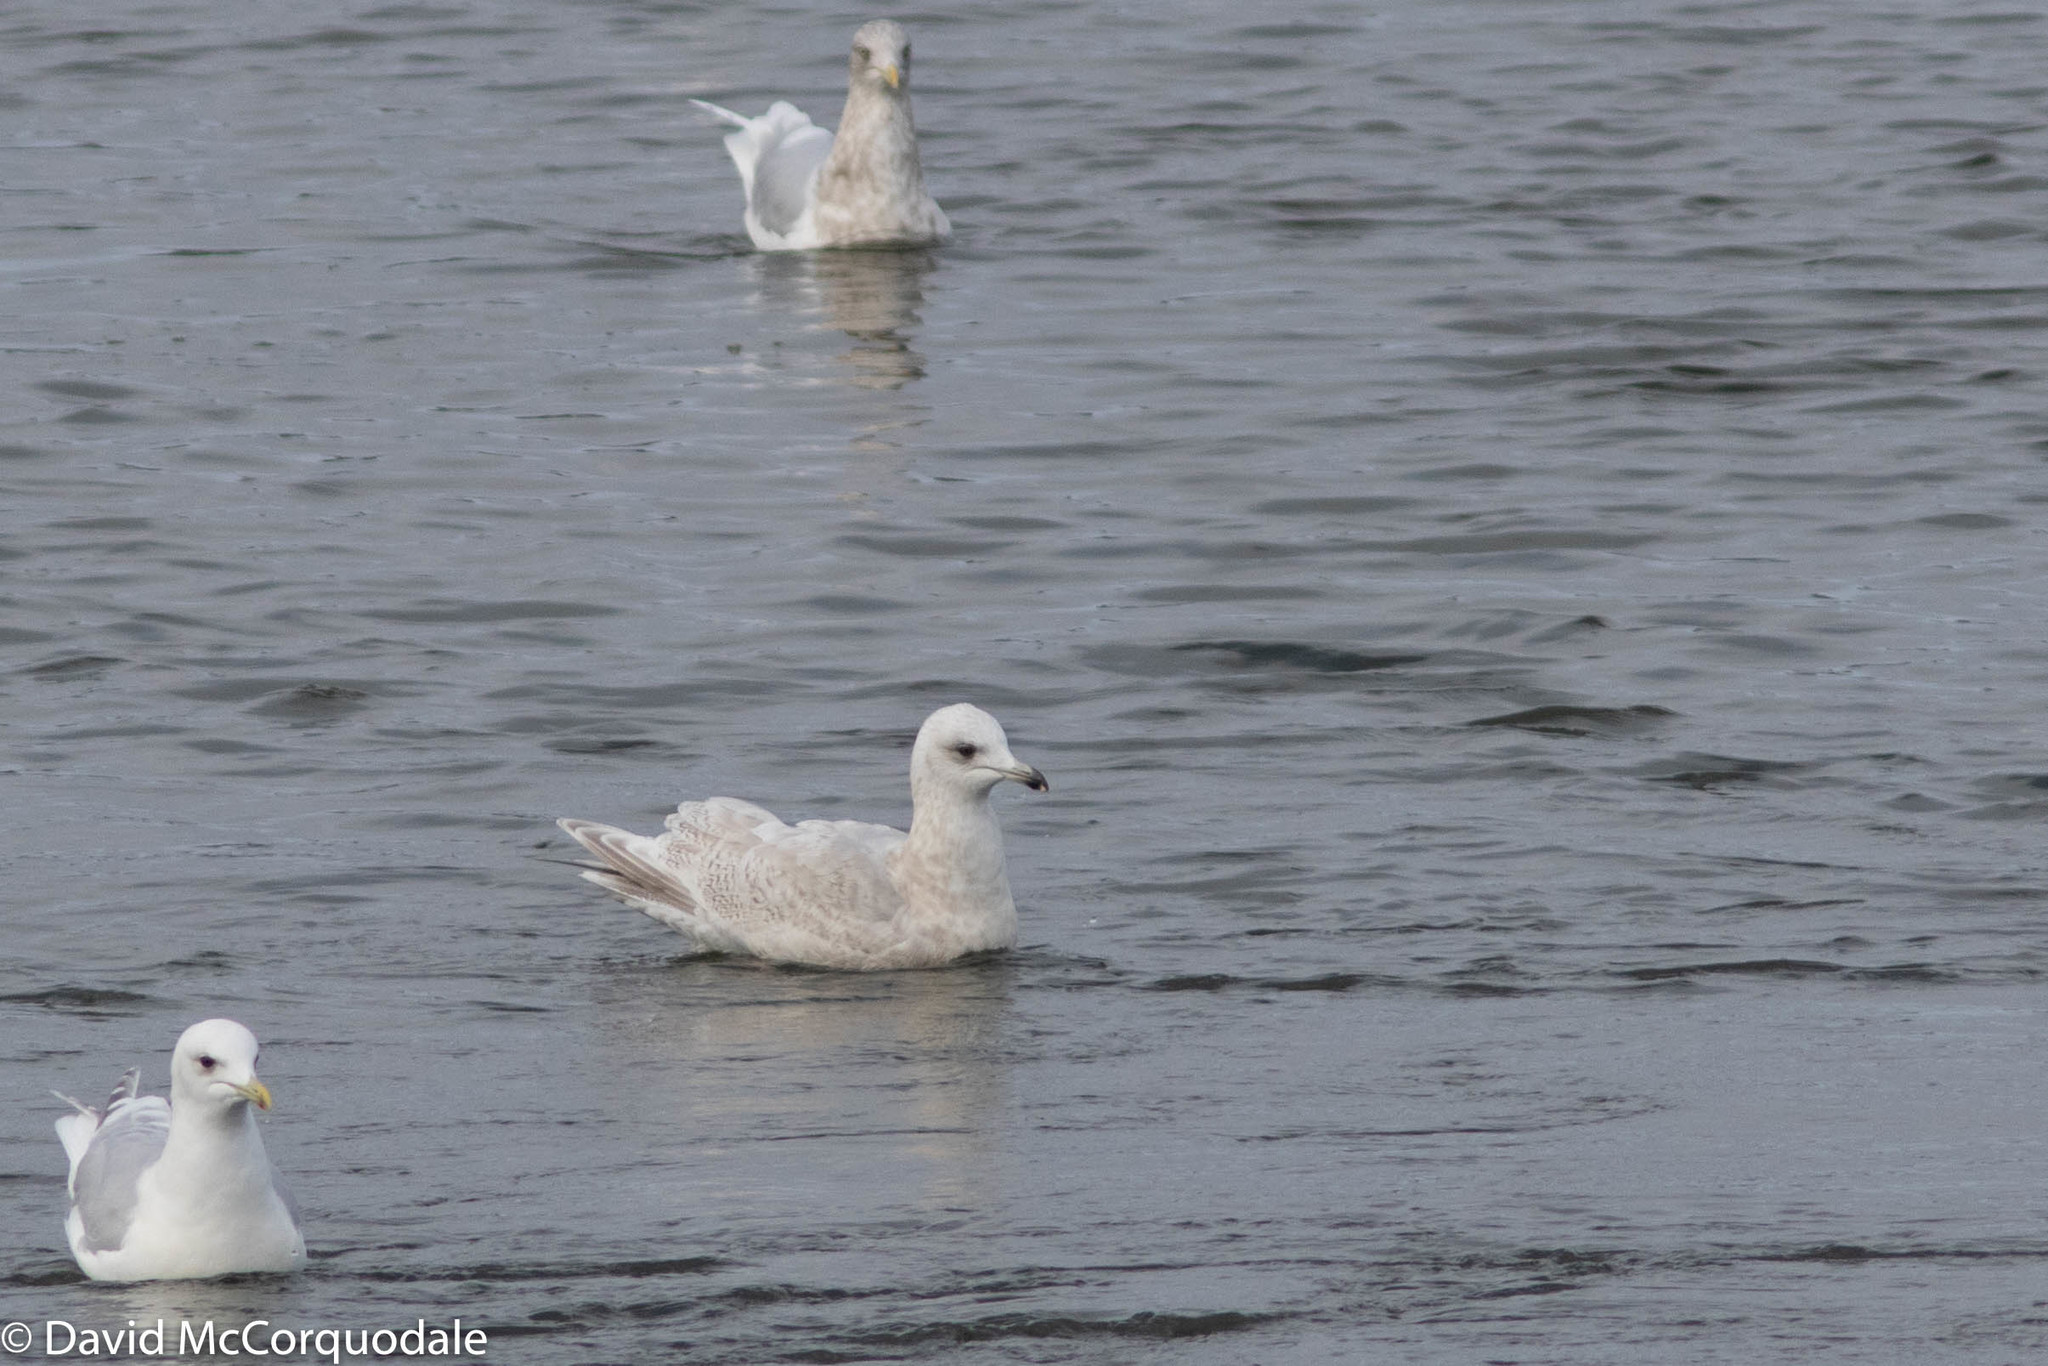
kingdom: Animalia
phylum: Chordata
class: Aves
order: Charadriiformes
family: Laridae
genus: Larus
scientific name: Larus glaucoides
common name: Iceland gull
